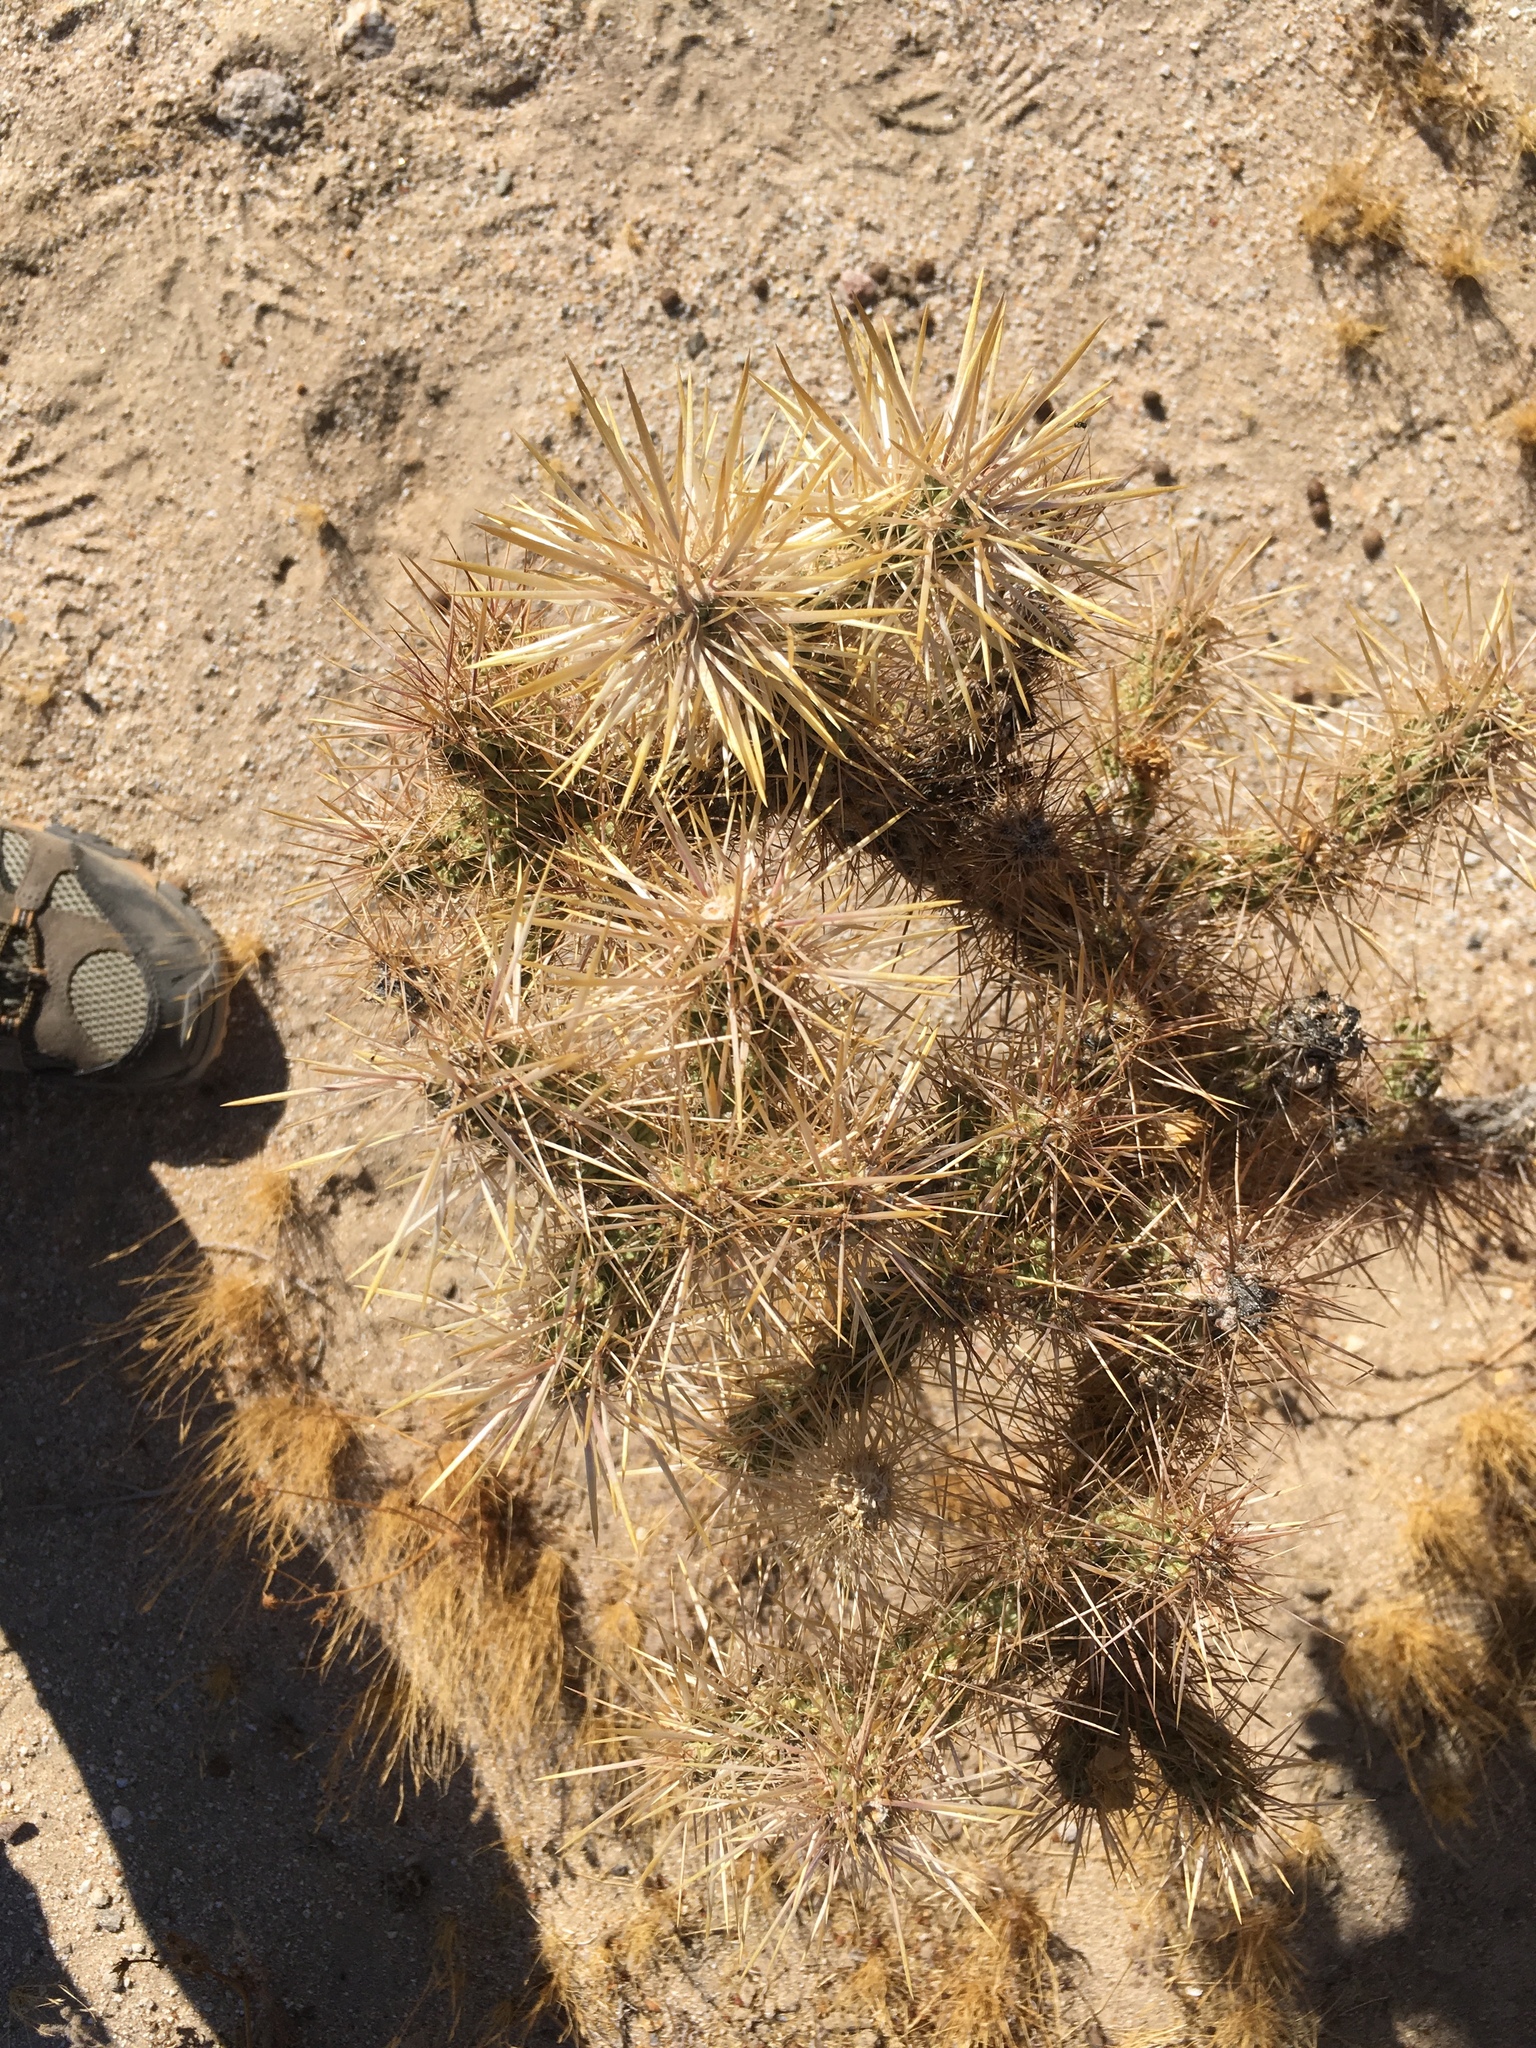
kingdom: Plantae
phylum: Tracheophyta
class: Magnoliopsida
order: Caryophyllales
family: Cactaceae
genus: Cylindropuntia
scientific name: Cylindropuntia echinocarpa
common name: Ground cholla
